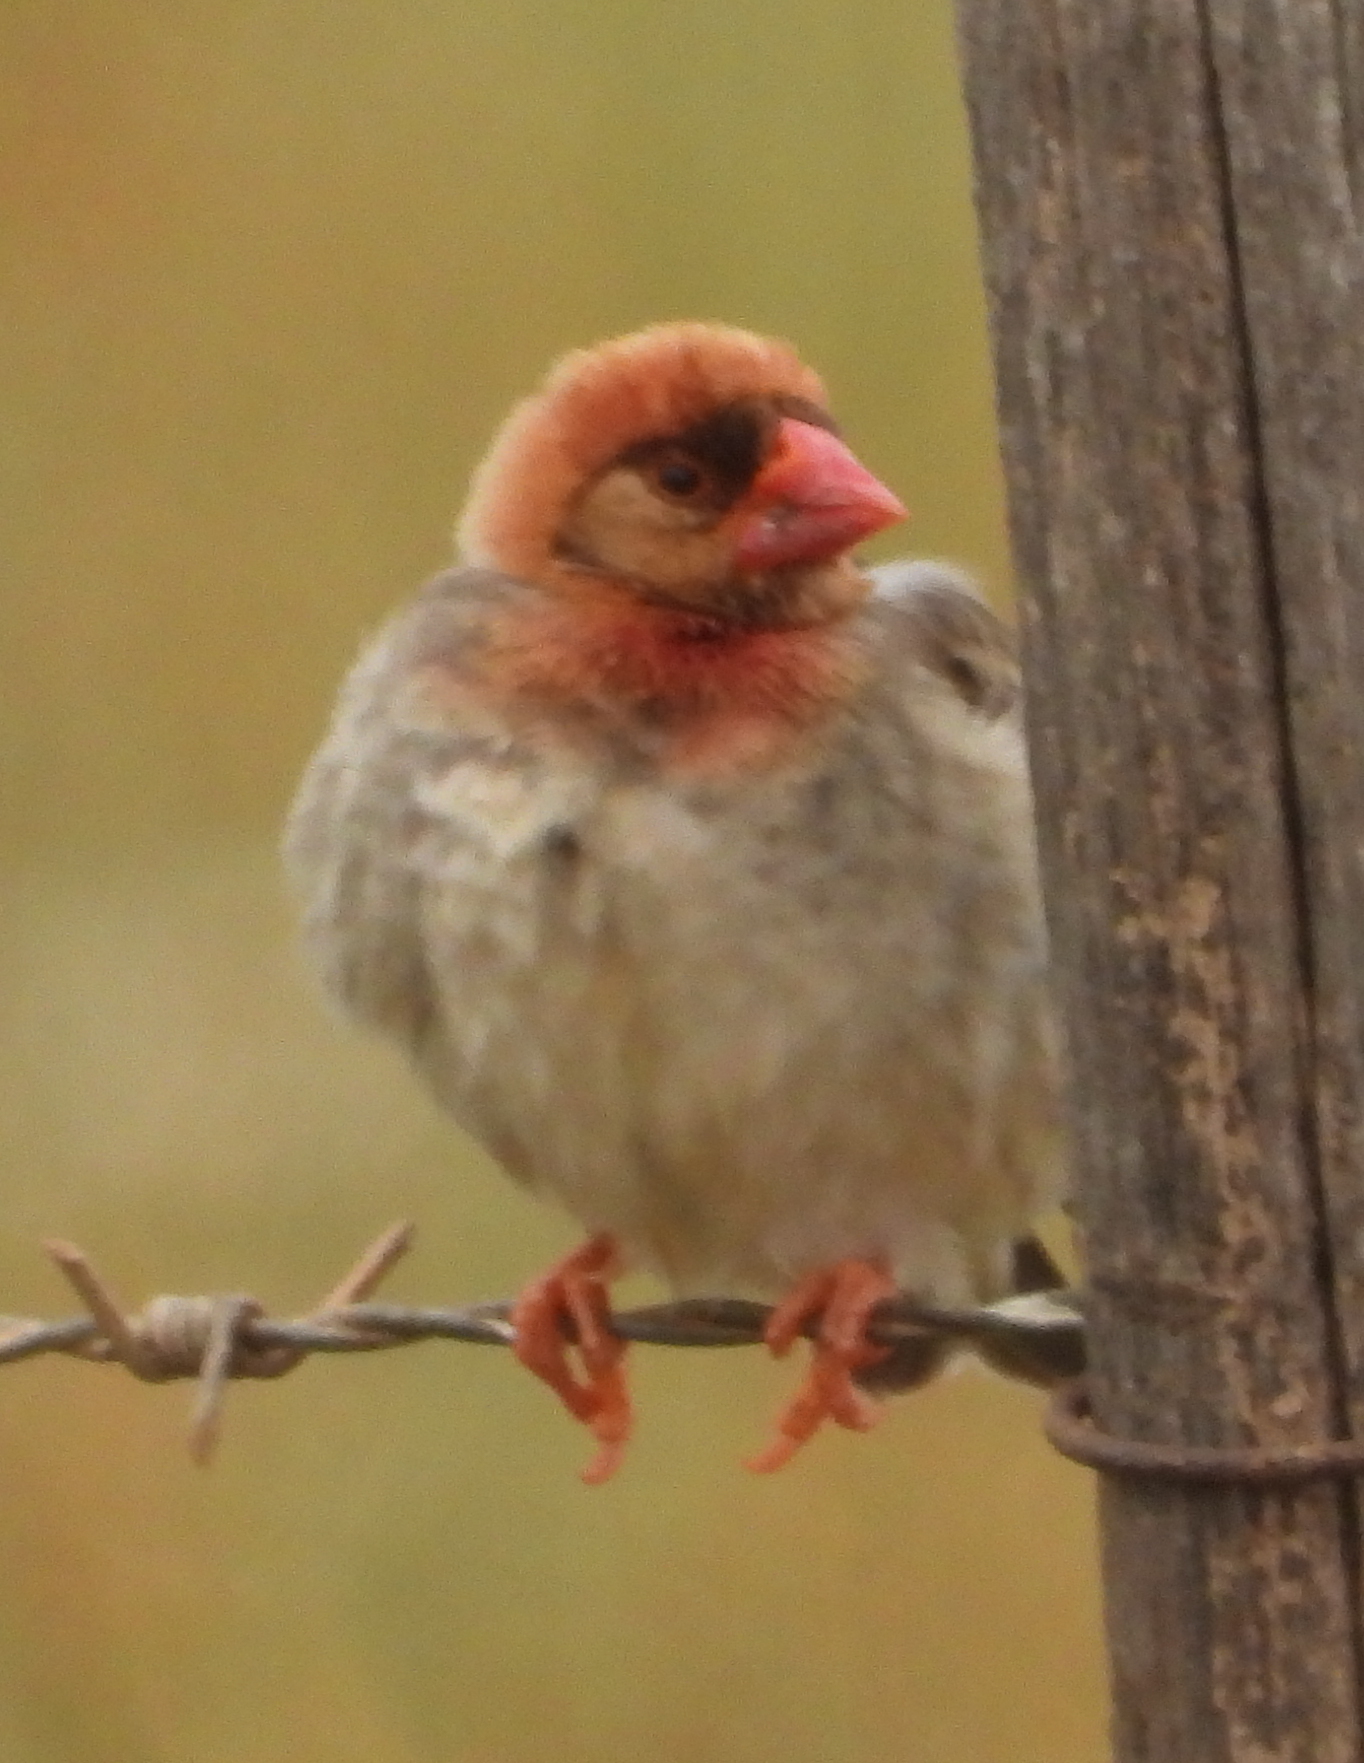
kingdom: Animalia
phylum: Chordata
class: Aves
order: Passeriformes
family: Ploceidae
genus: Quelea
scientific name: Quelea quelea
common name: Red-billed quelea
